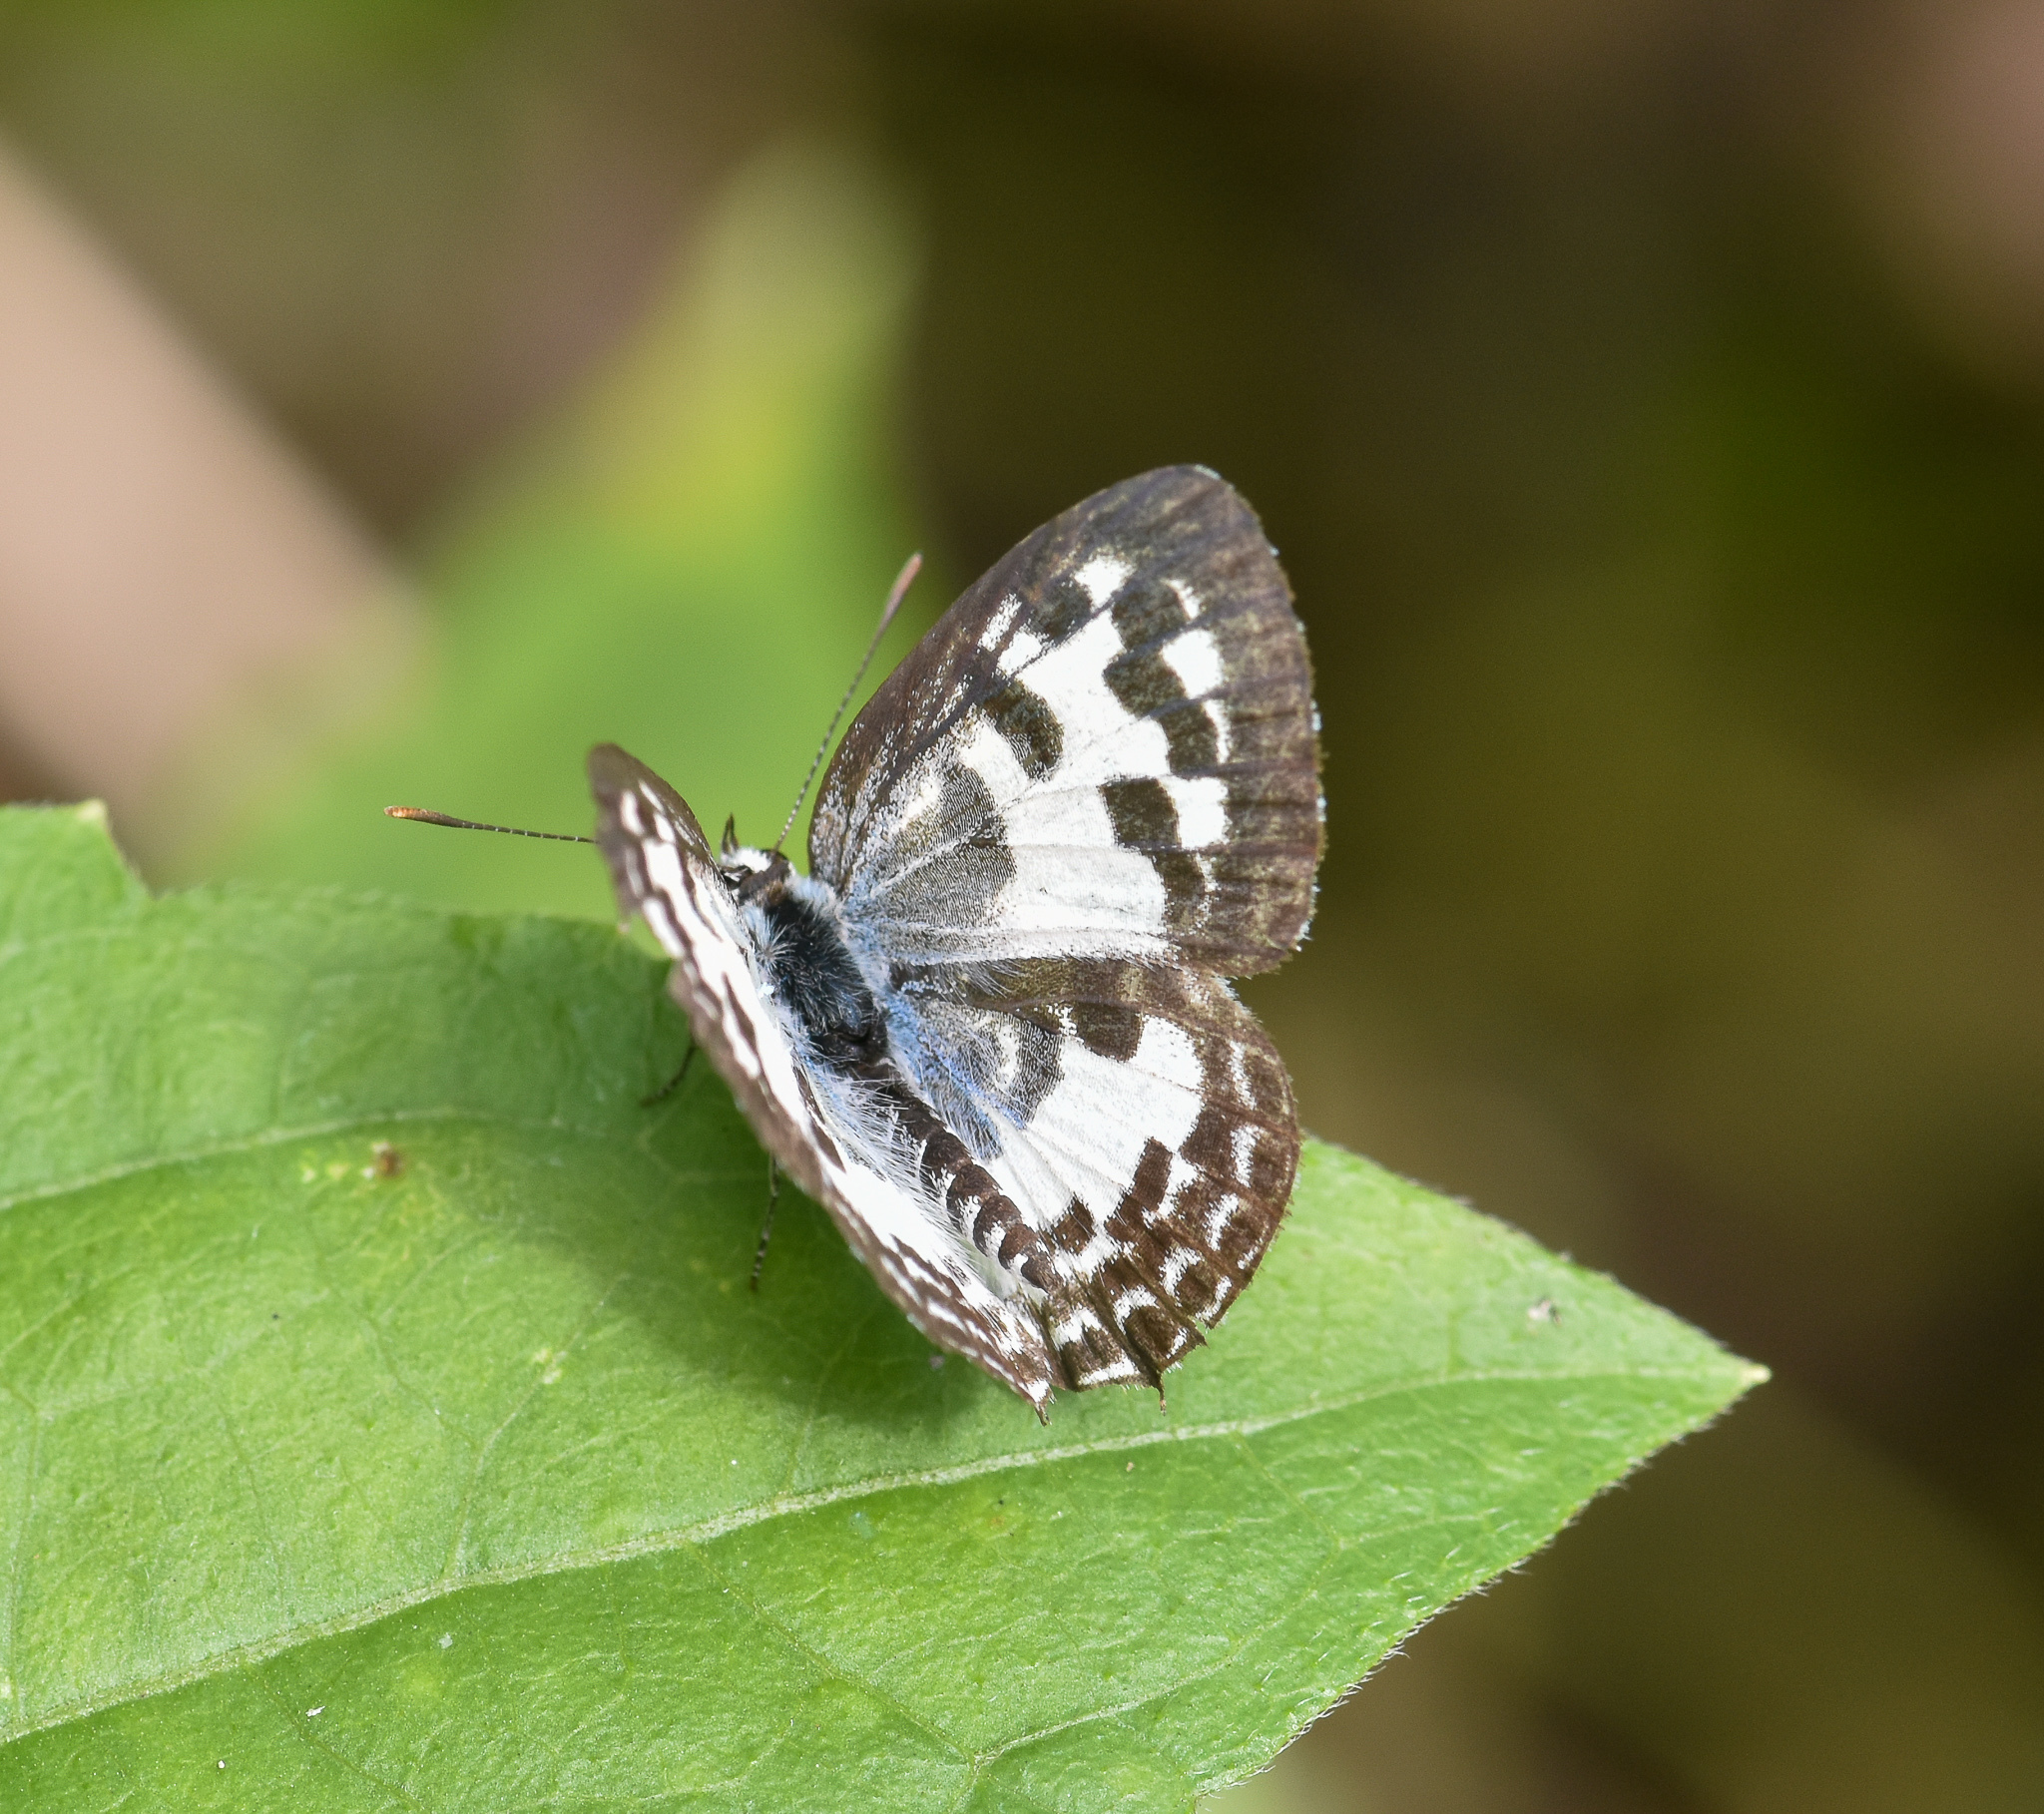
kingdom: Animalia
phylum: Arthropoda
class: Insecta
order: Lepidoptera
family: Lycaenidae
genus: Castalius
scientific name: Castalius rosimon
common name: Common pierrot
